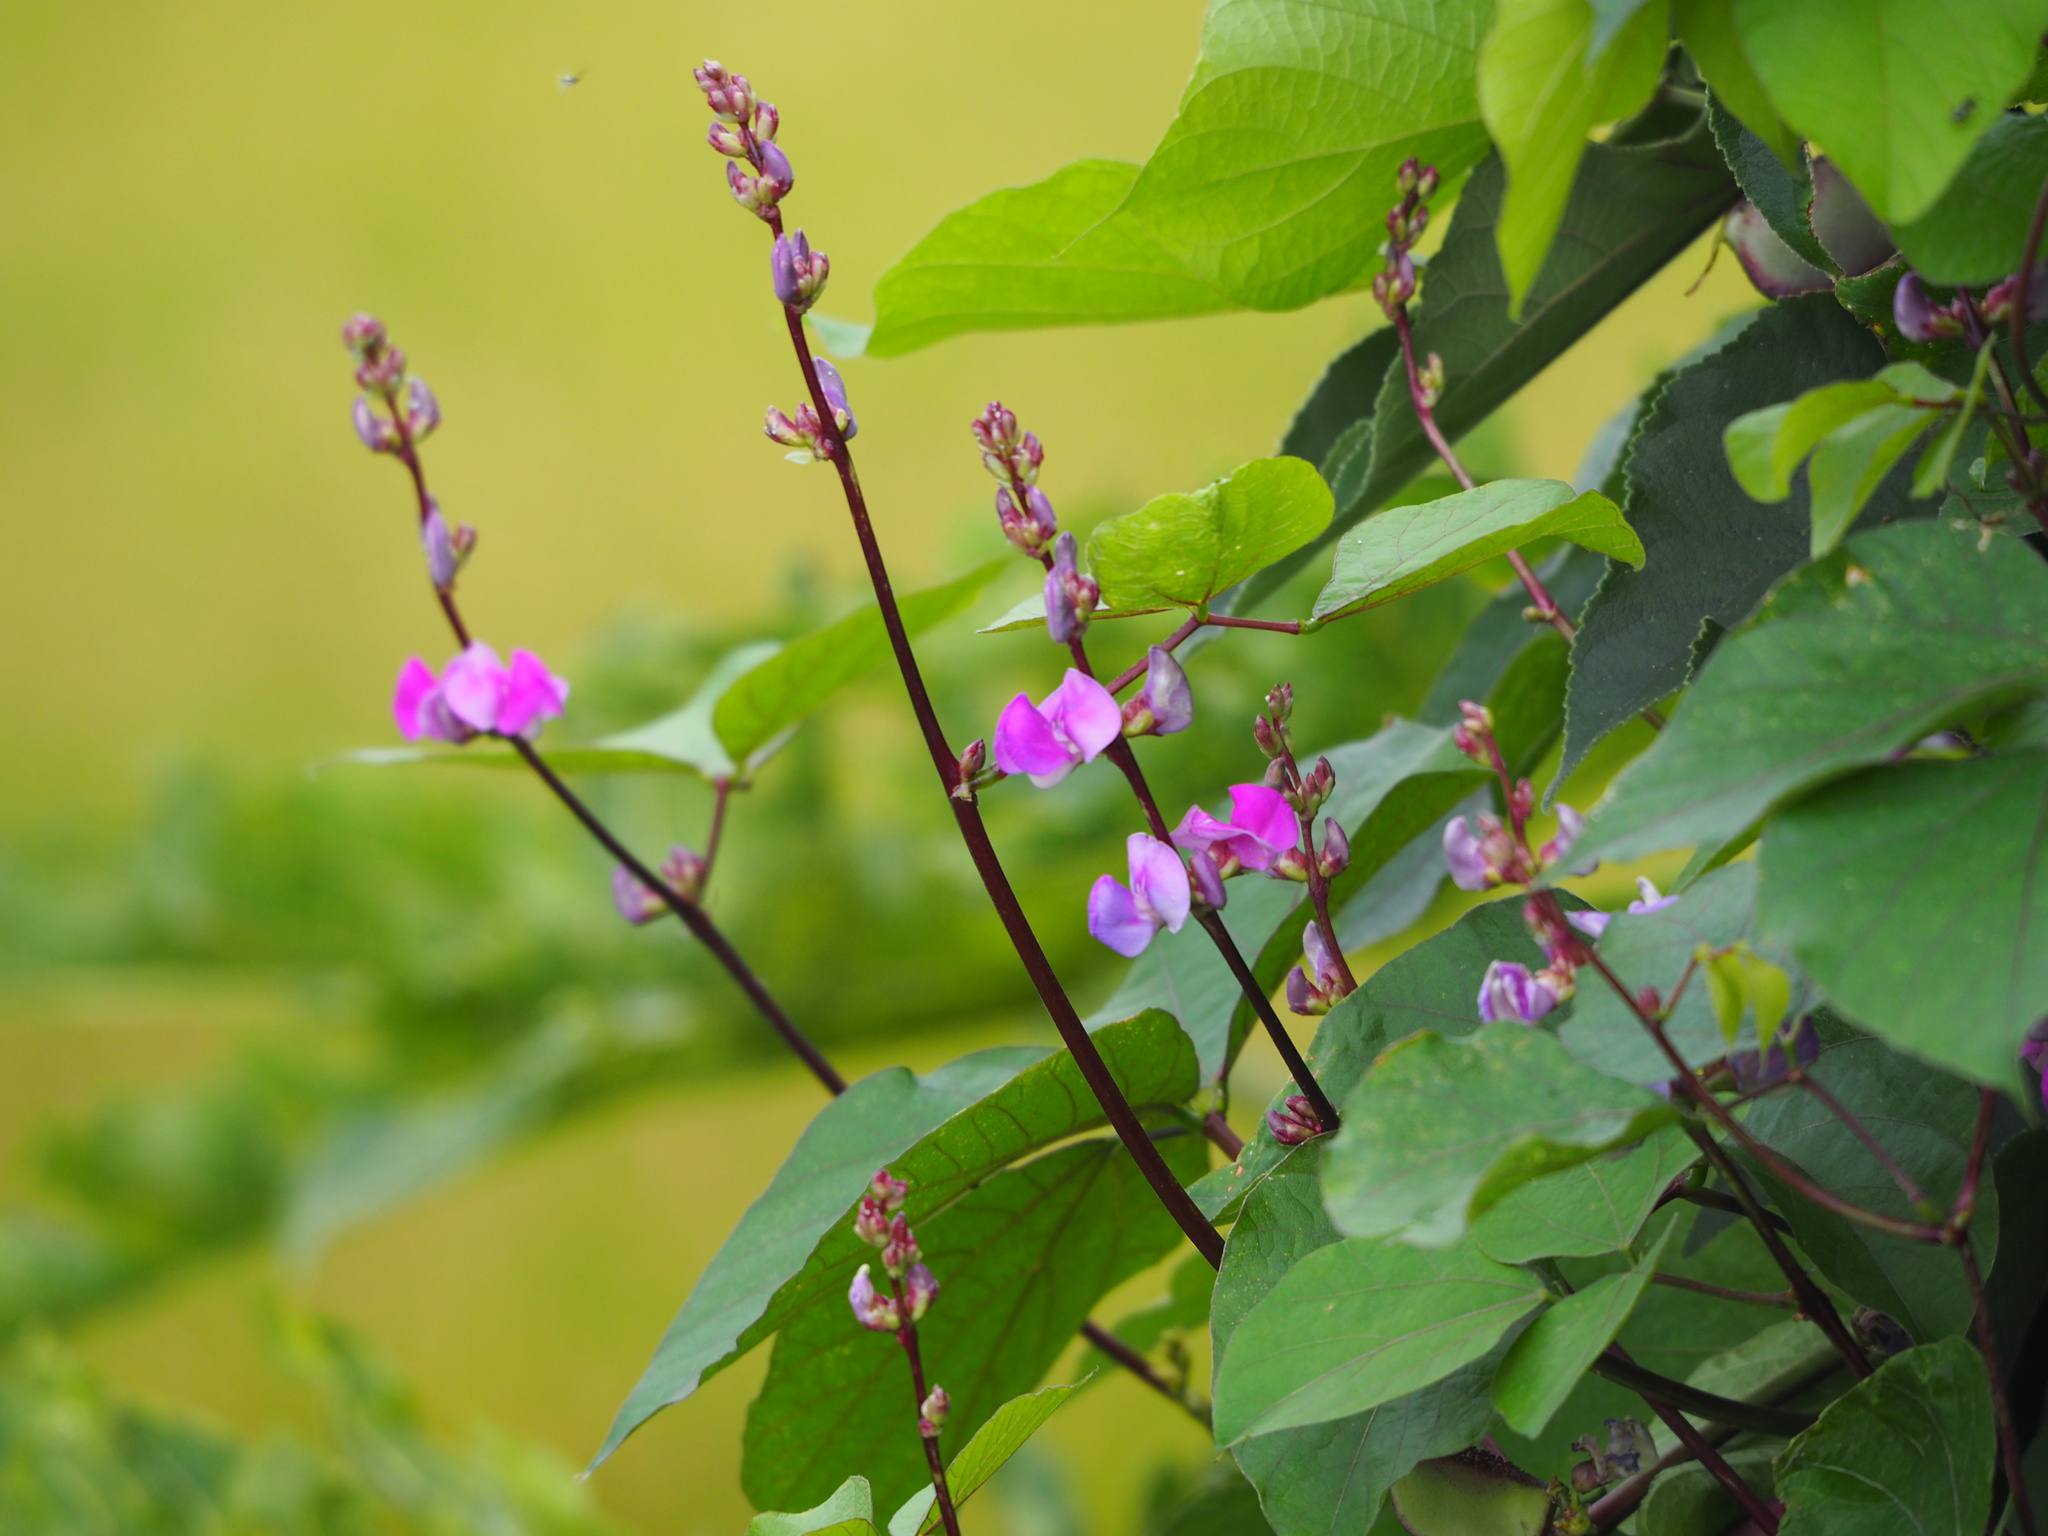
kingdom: Plantae
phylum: Tracheophyta
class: Magnoliopsida
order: Fabales
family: Fabaceae
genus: Lablab
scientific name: Lablab purpureus
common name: Lablab-bean
